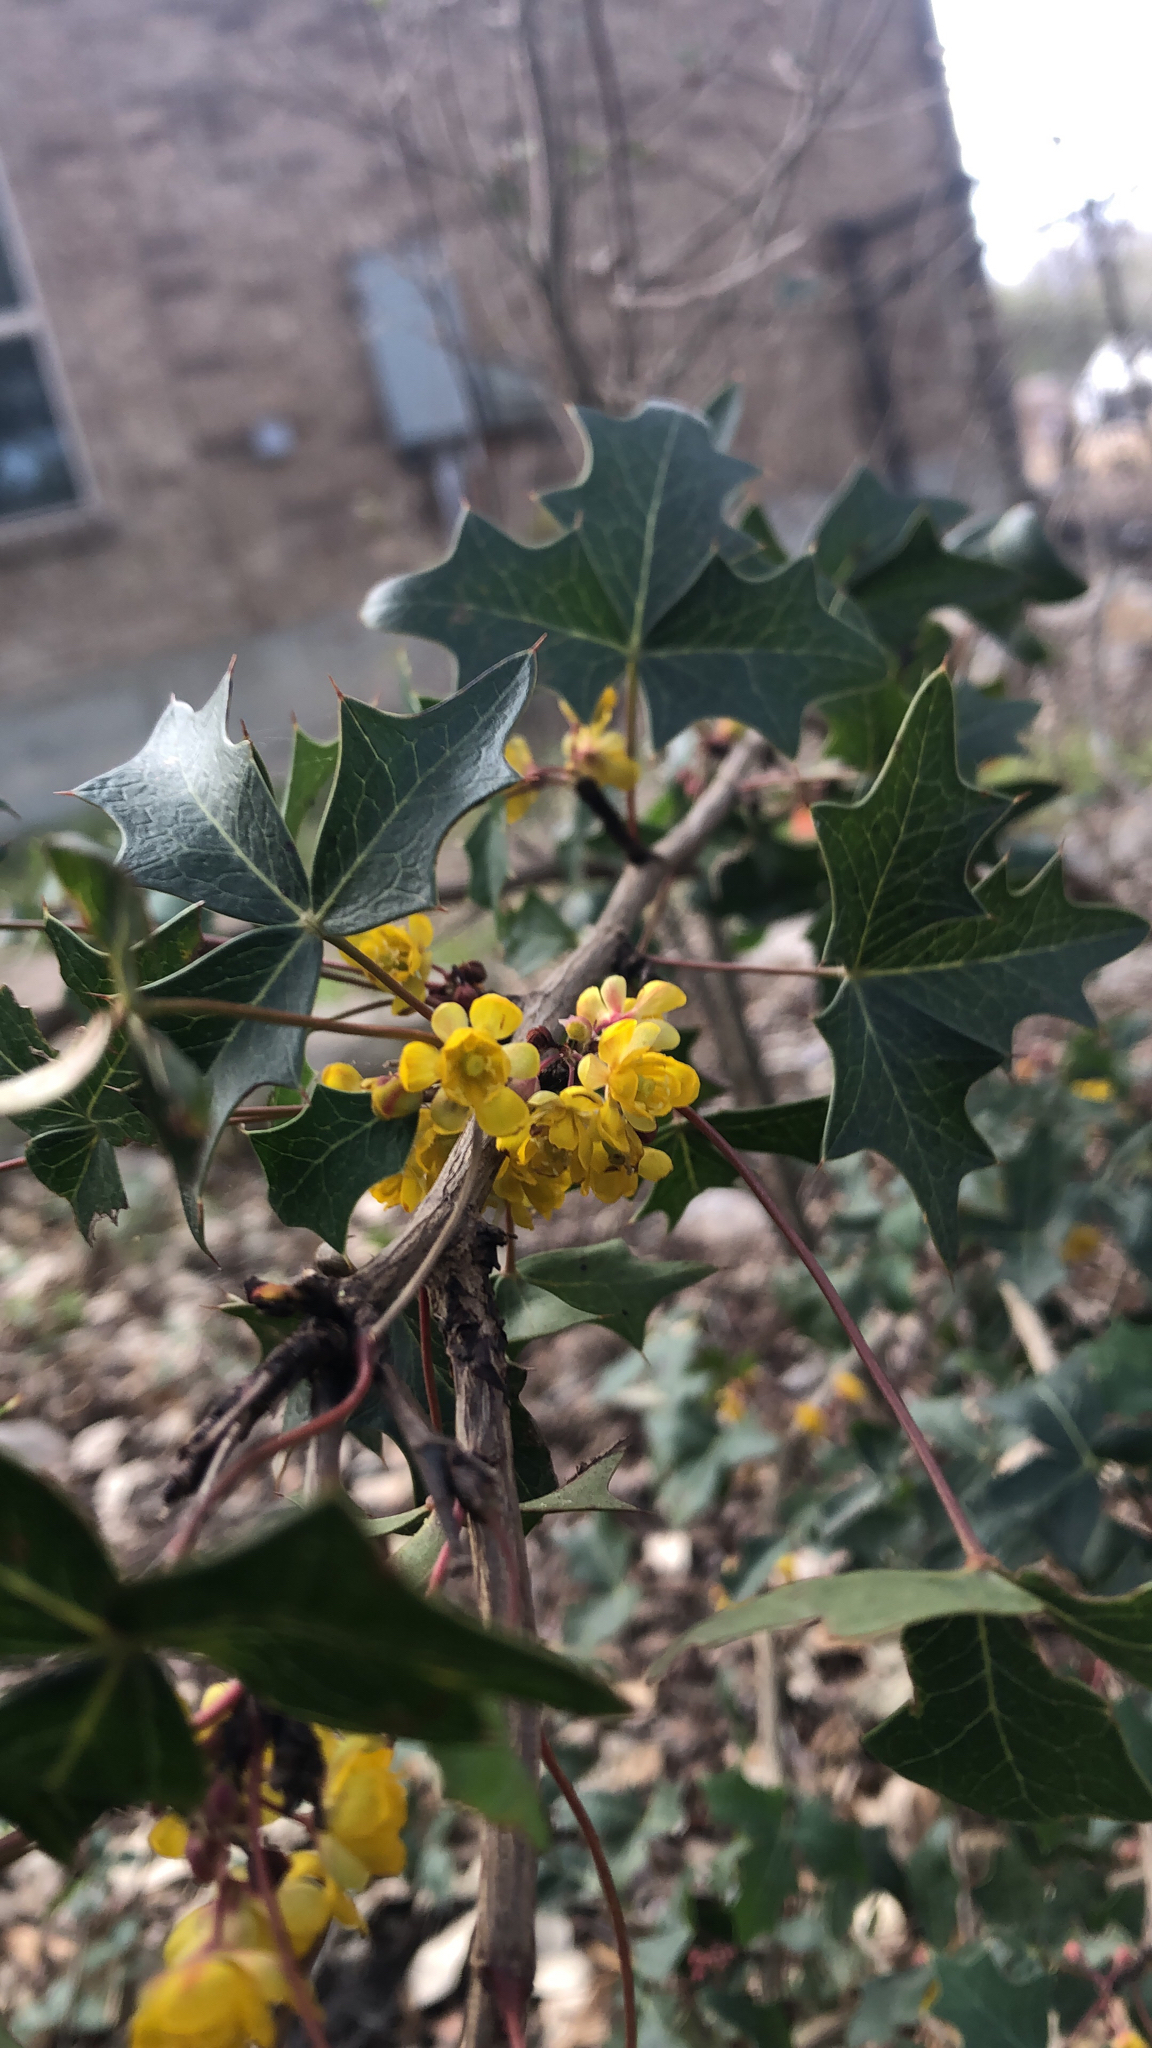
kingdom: Plantae
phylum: Tracheophyta
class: Magnoliopsida
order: Ranunculales
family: Berberidaceae
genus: Alloberberis
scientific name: Alloberberis trifoliolata
